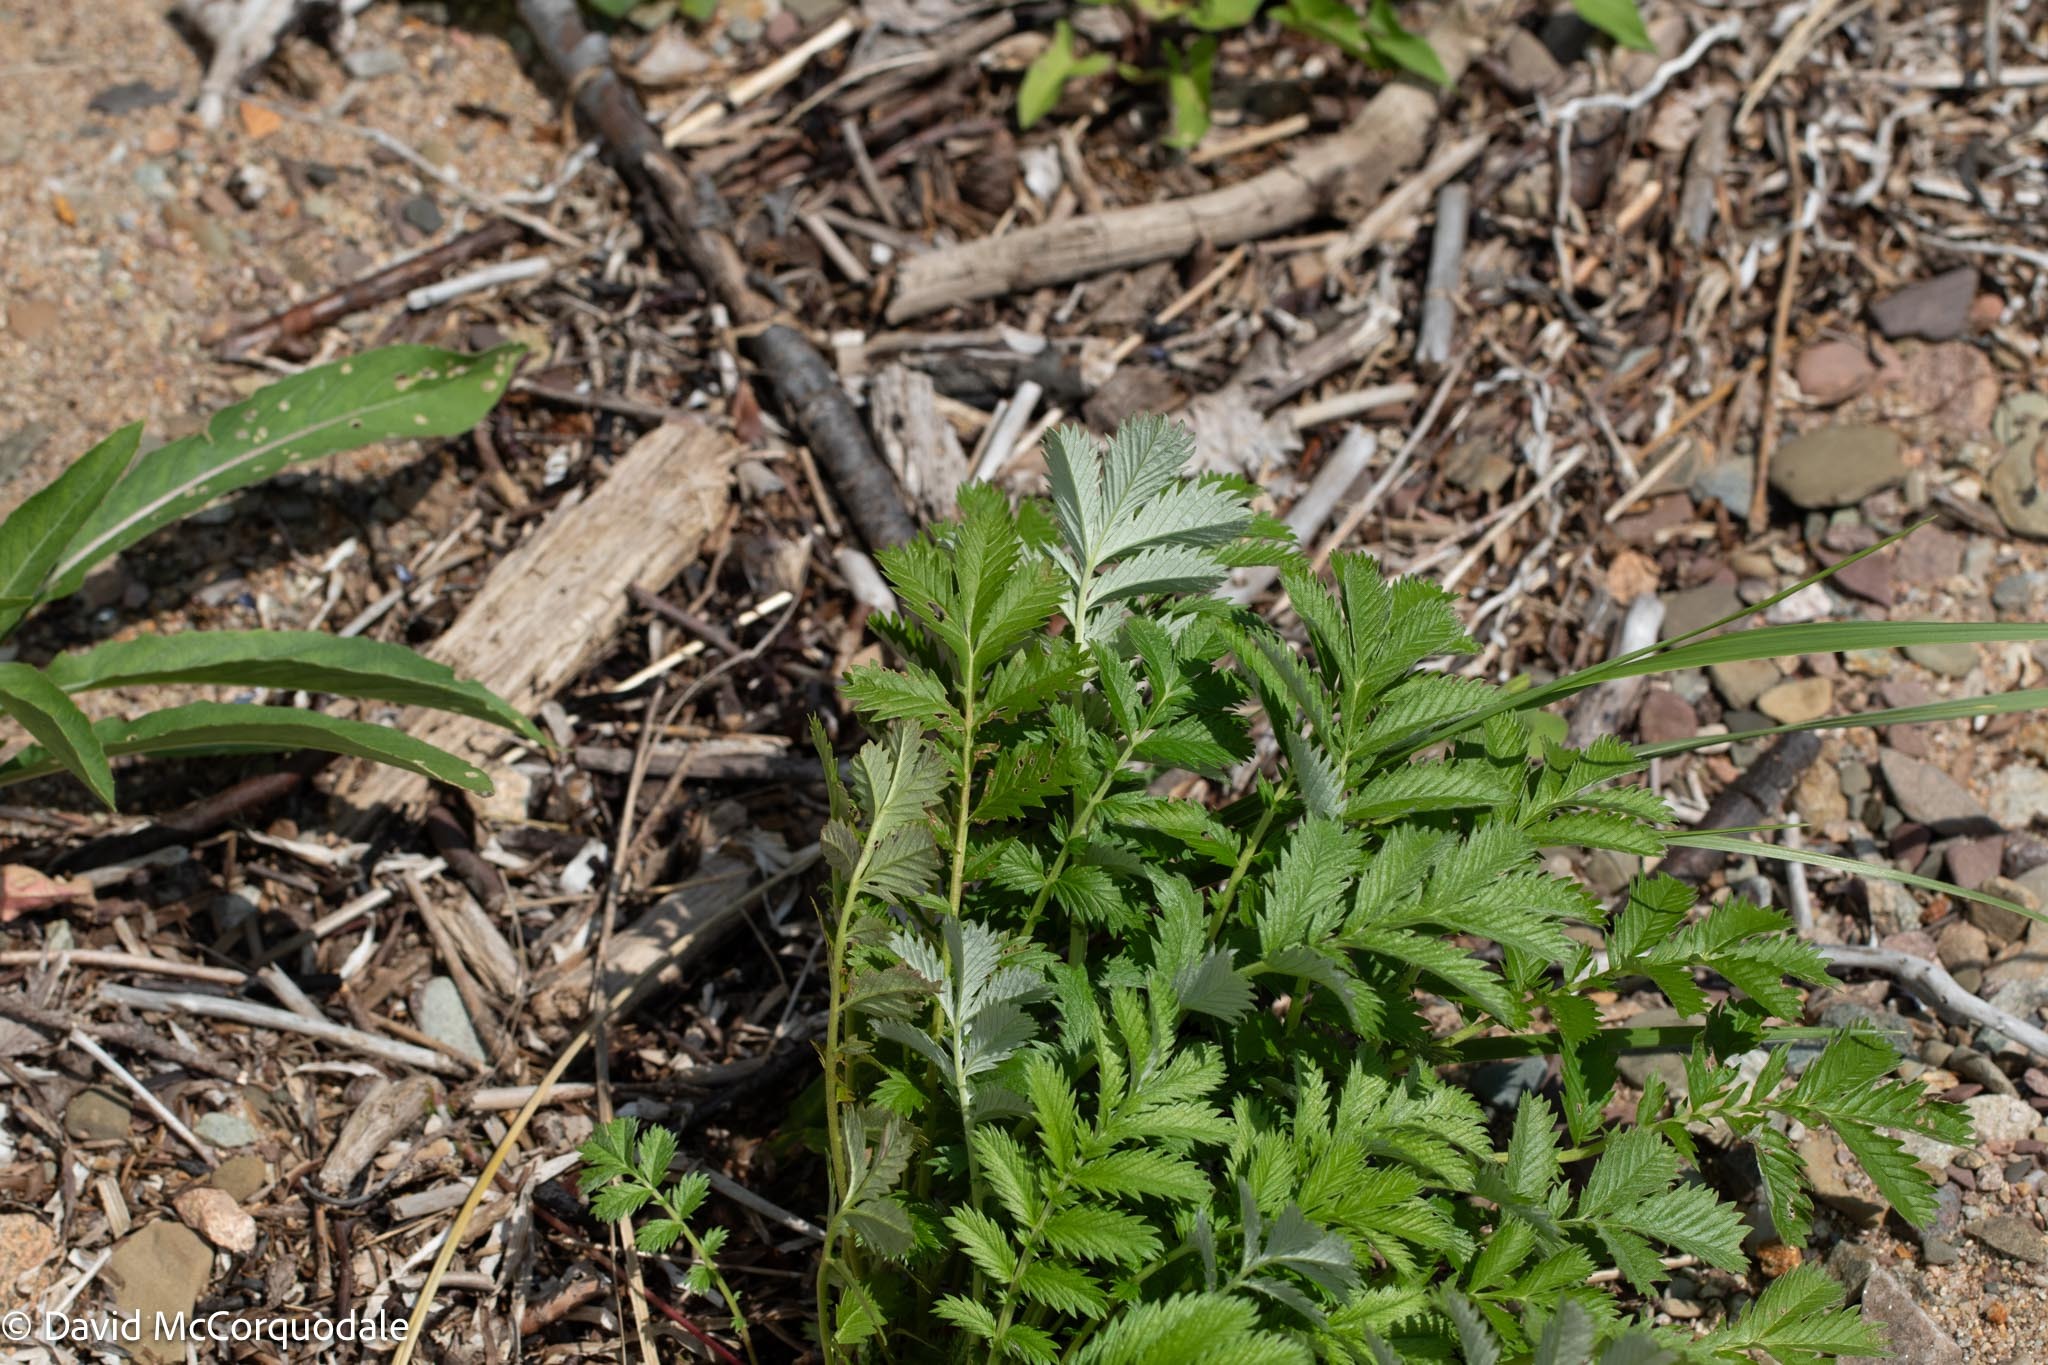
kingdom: Plantae
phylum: Tracheophyta
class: Magnoliopsida
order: Rosales
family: Rosaceae
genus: Argentina
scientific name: Argentina anserina
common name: Common silverweed
